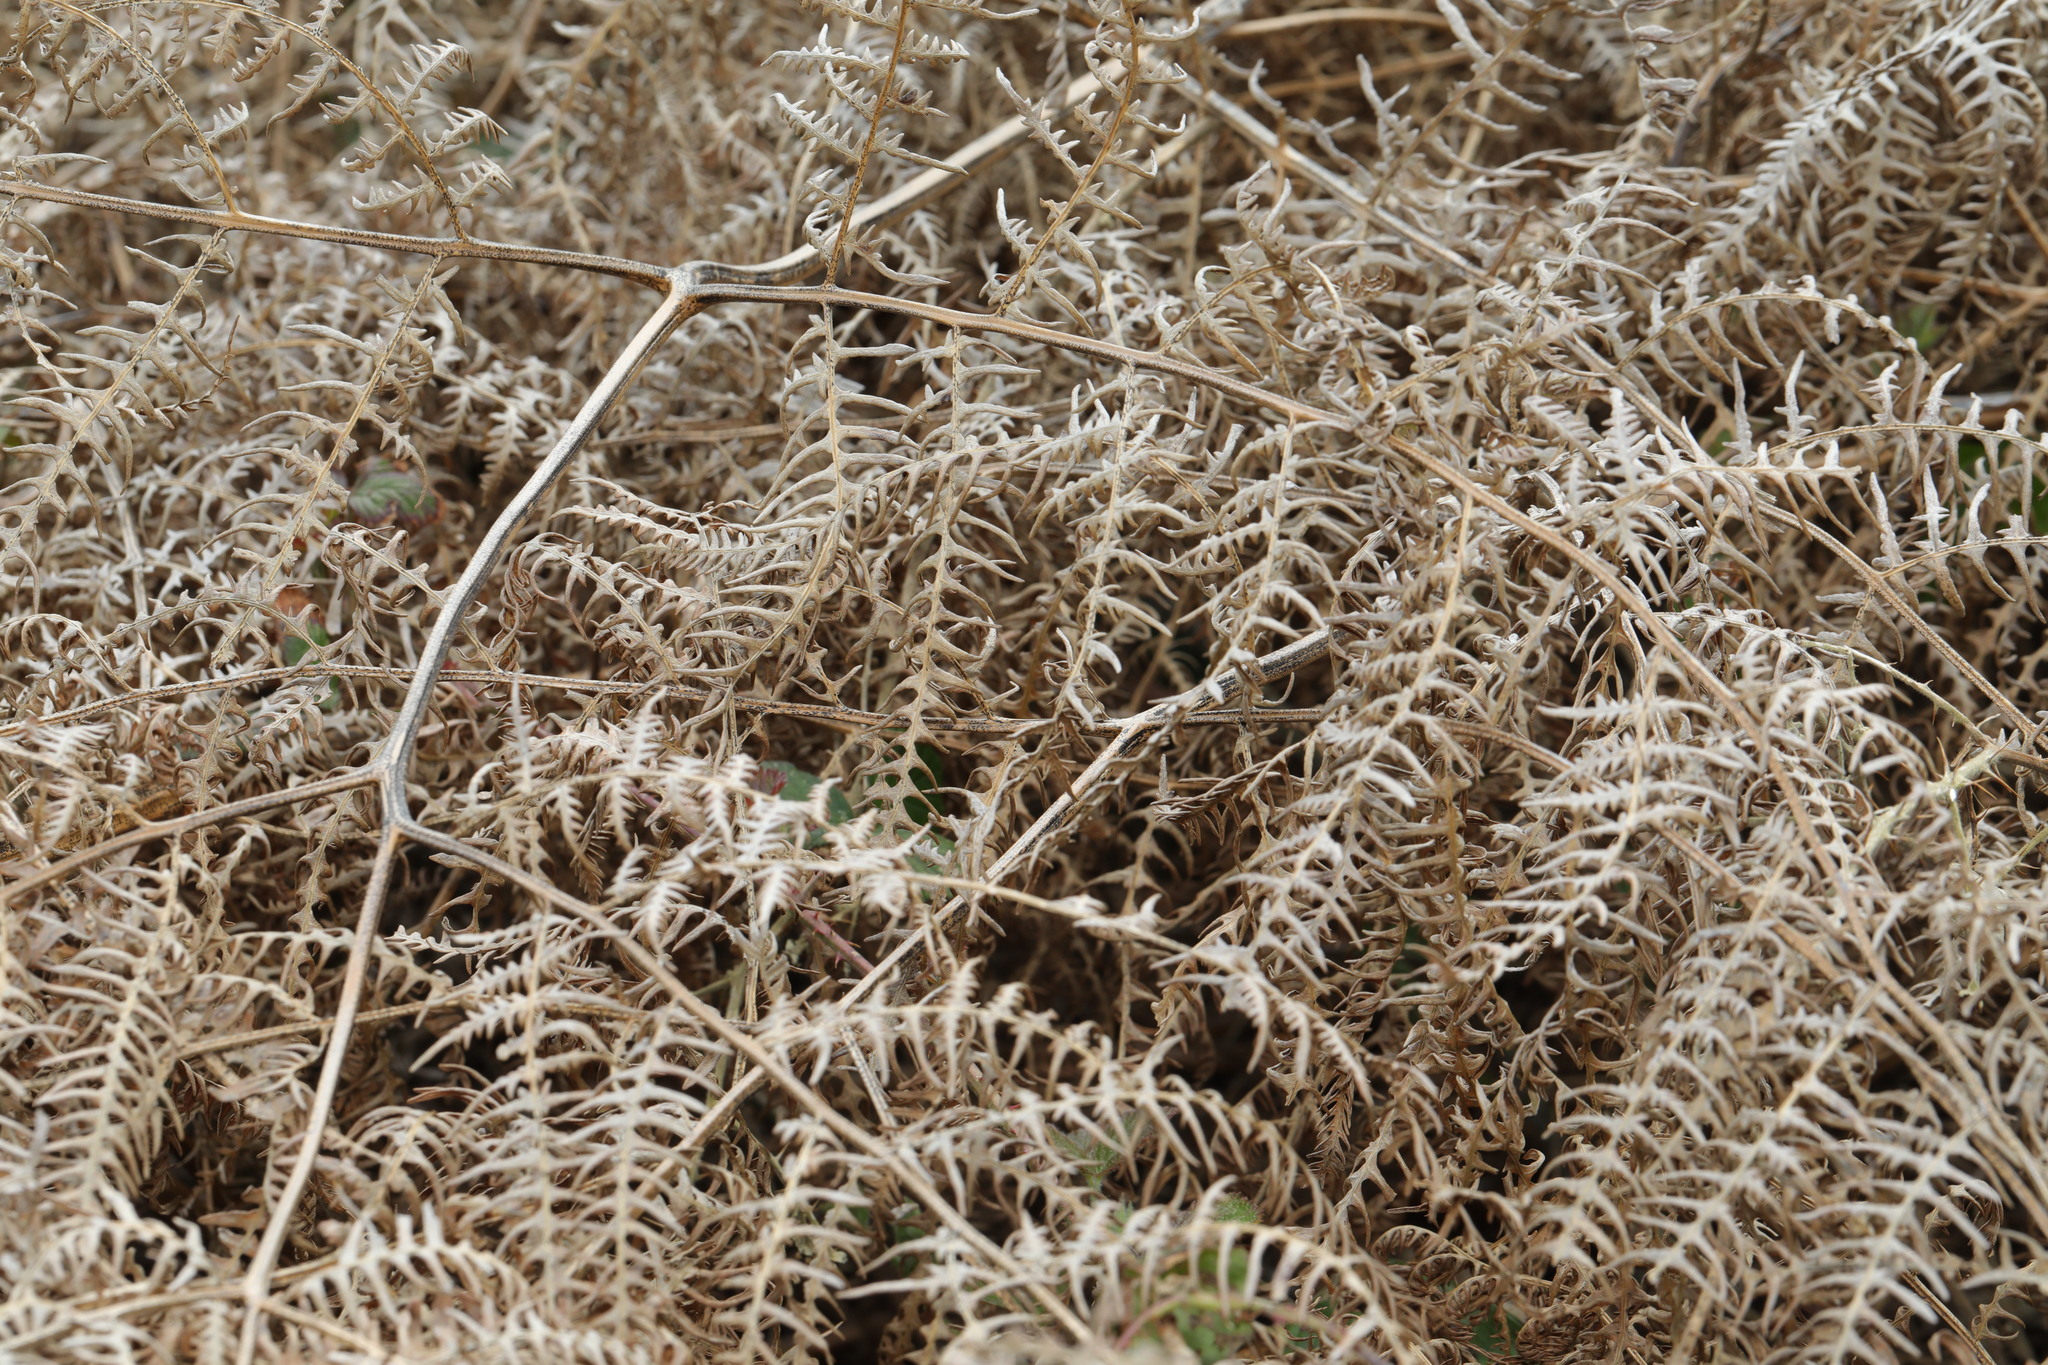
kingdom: Plantae
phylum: Tracheophyta
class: Polypodiopsida
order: Polypodiales
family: Dennstaedtiaceae
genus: Pteridium
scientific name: Pteridium aquilinum
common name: Bracken
